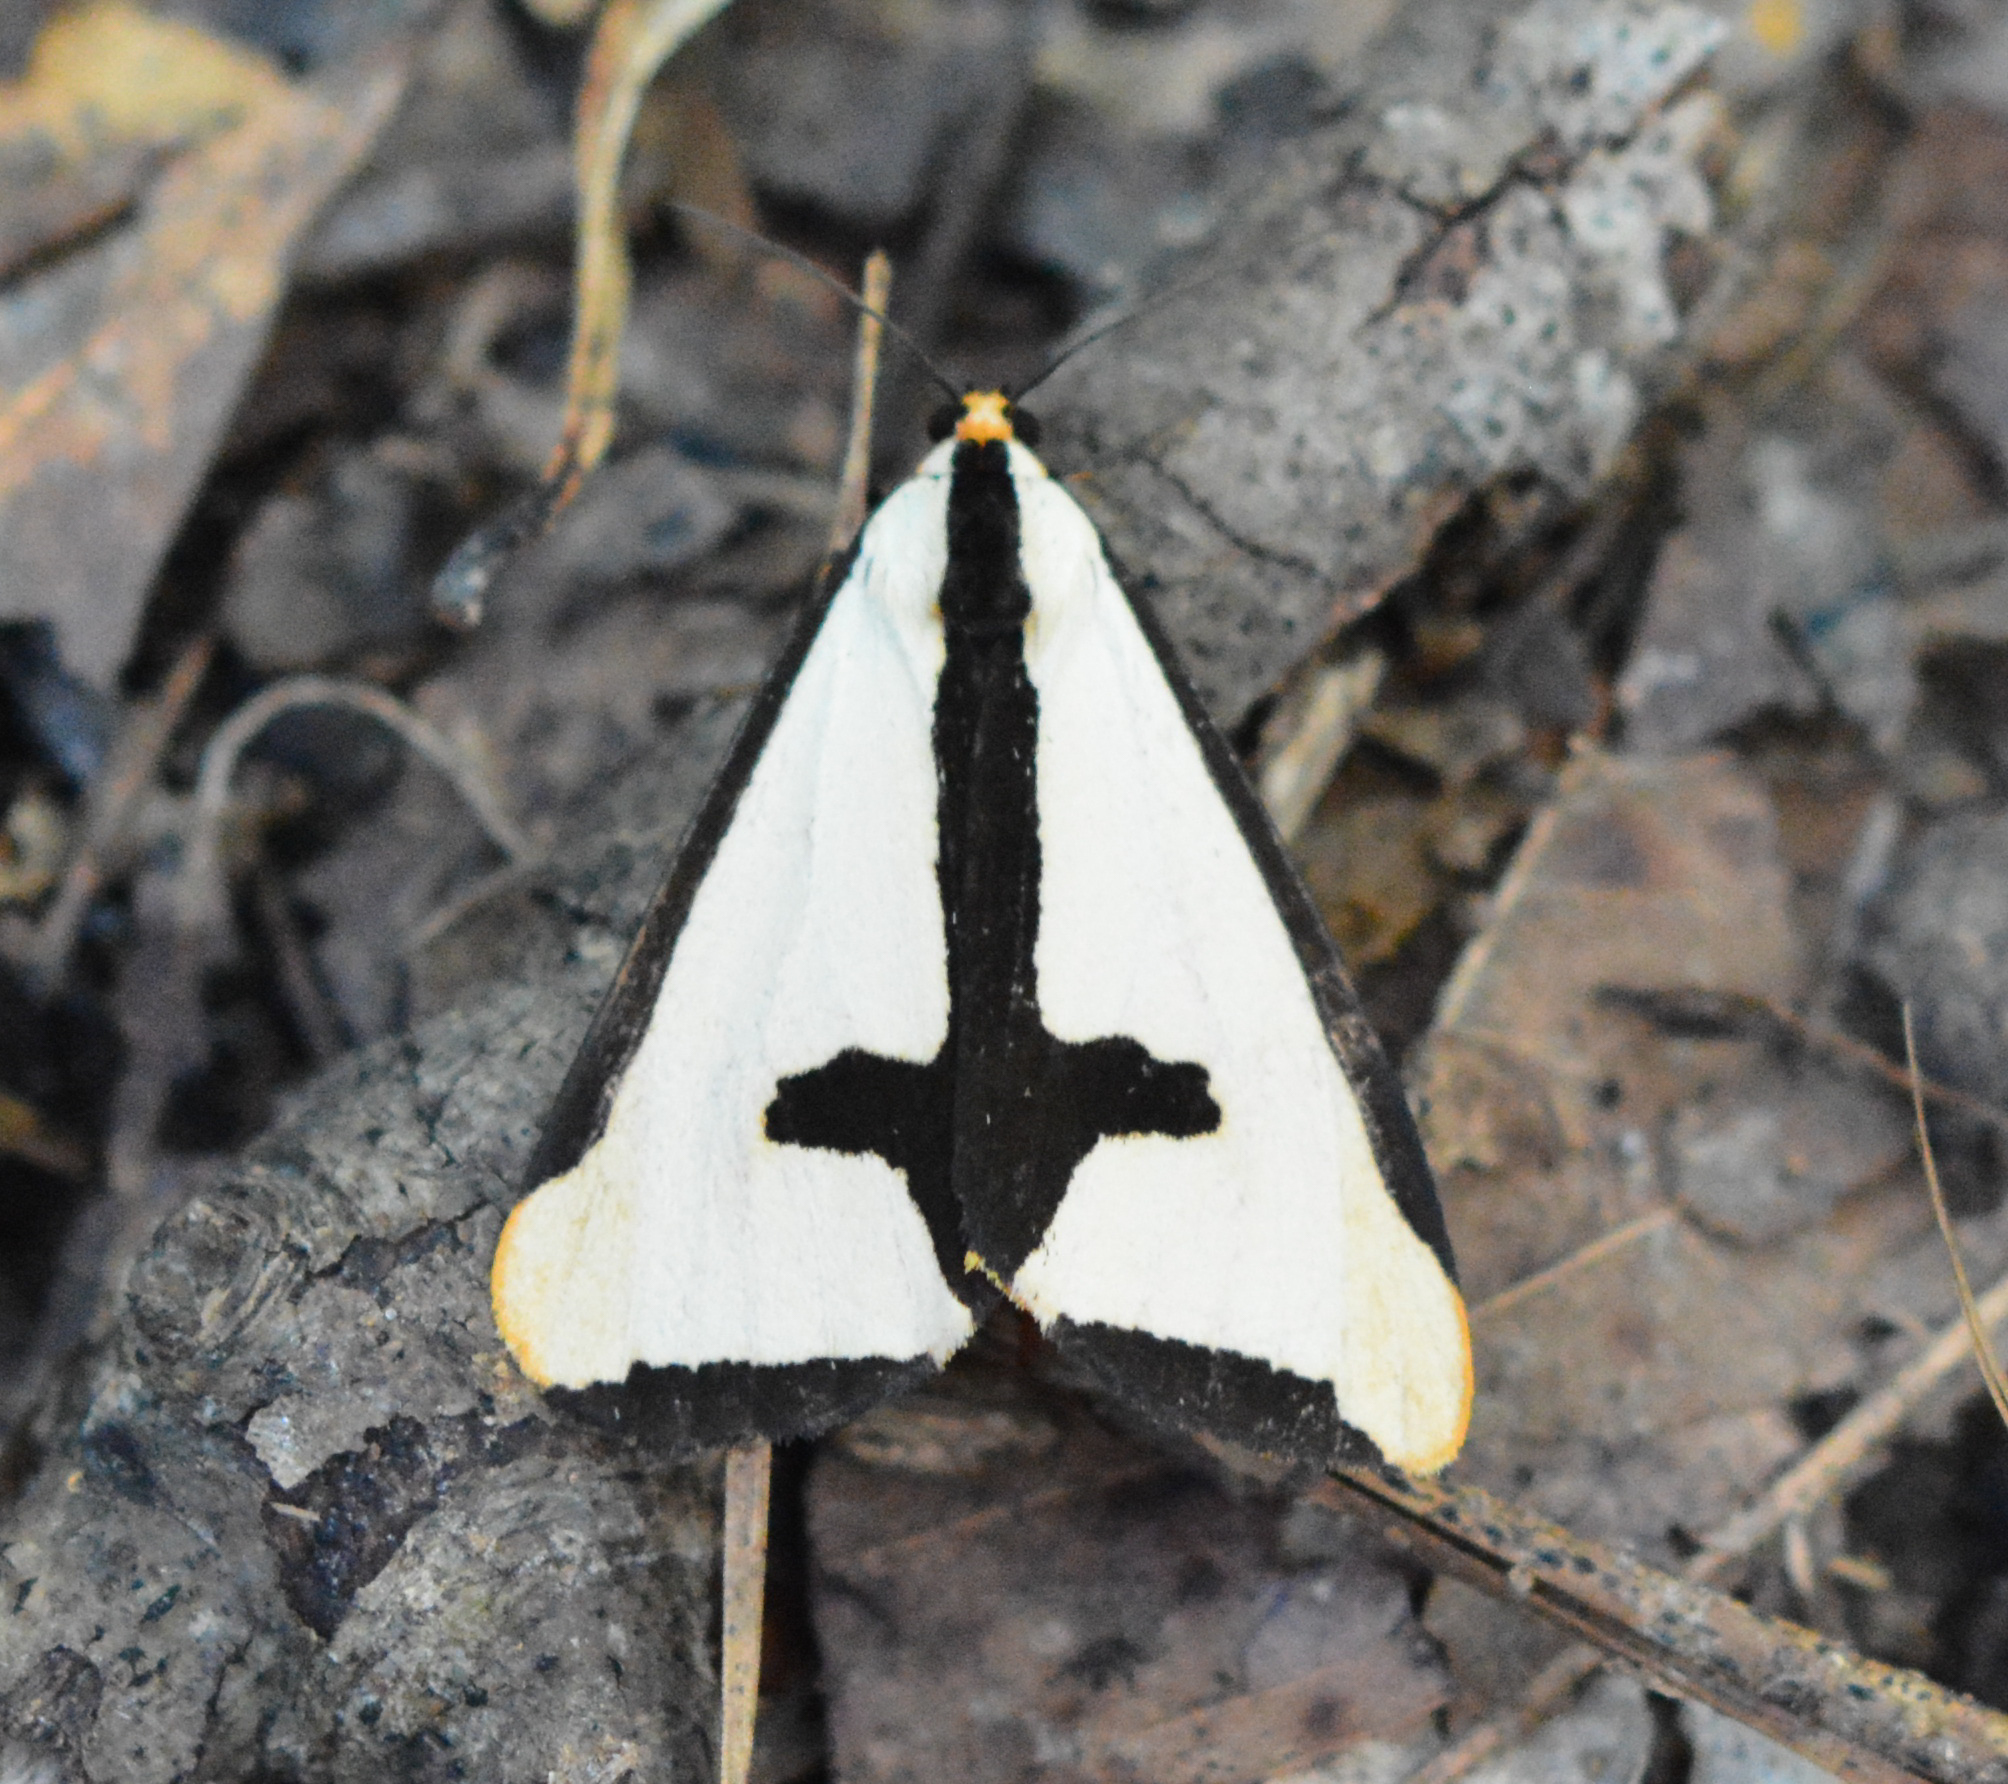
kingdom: Animalia
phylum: Arthropoda
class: Insecta
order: Lepidoptera
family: Erebidae
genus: Haploa
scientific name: Haploa clymene
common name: Clymene moth
